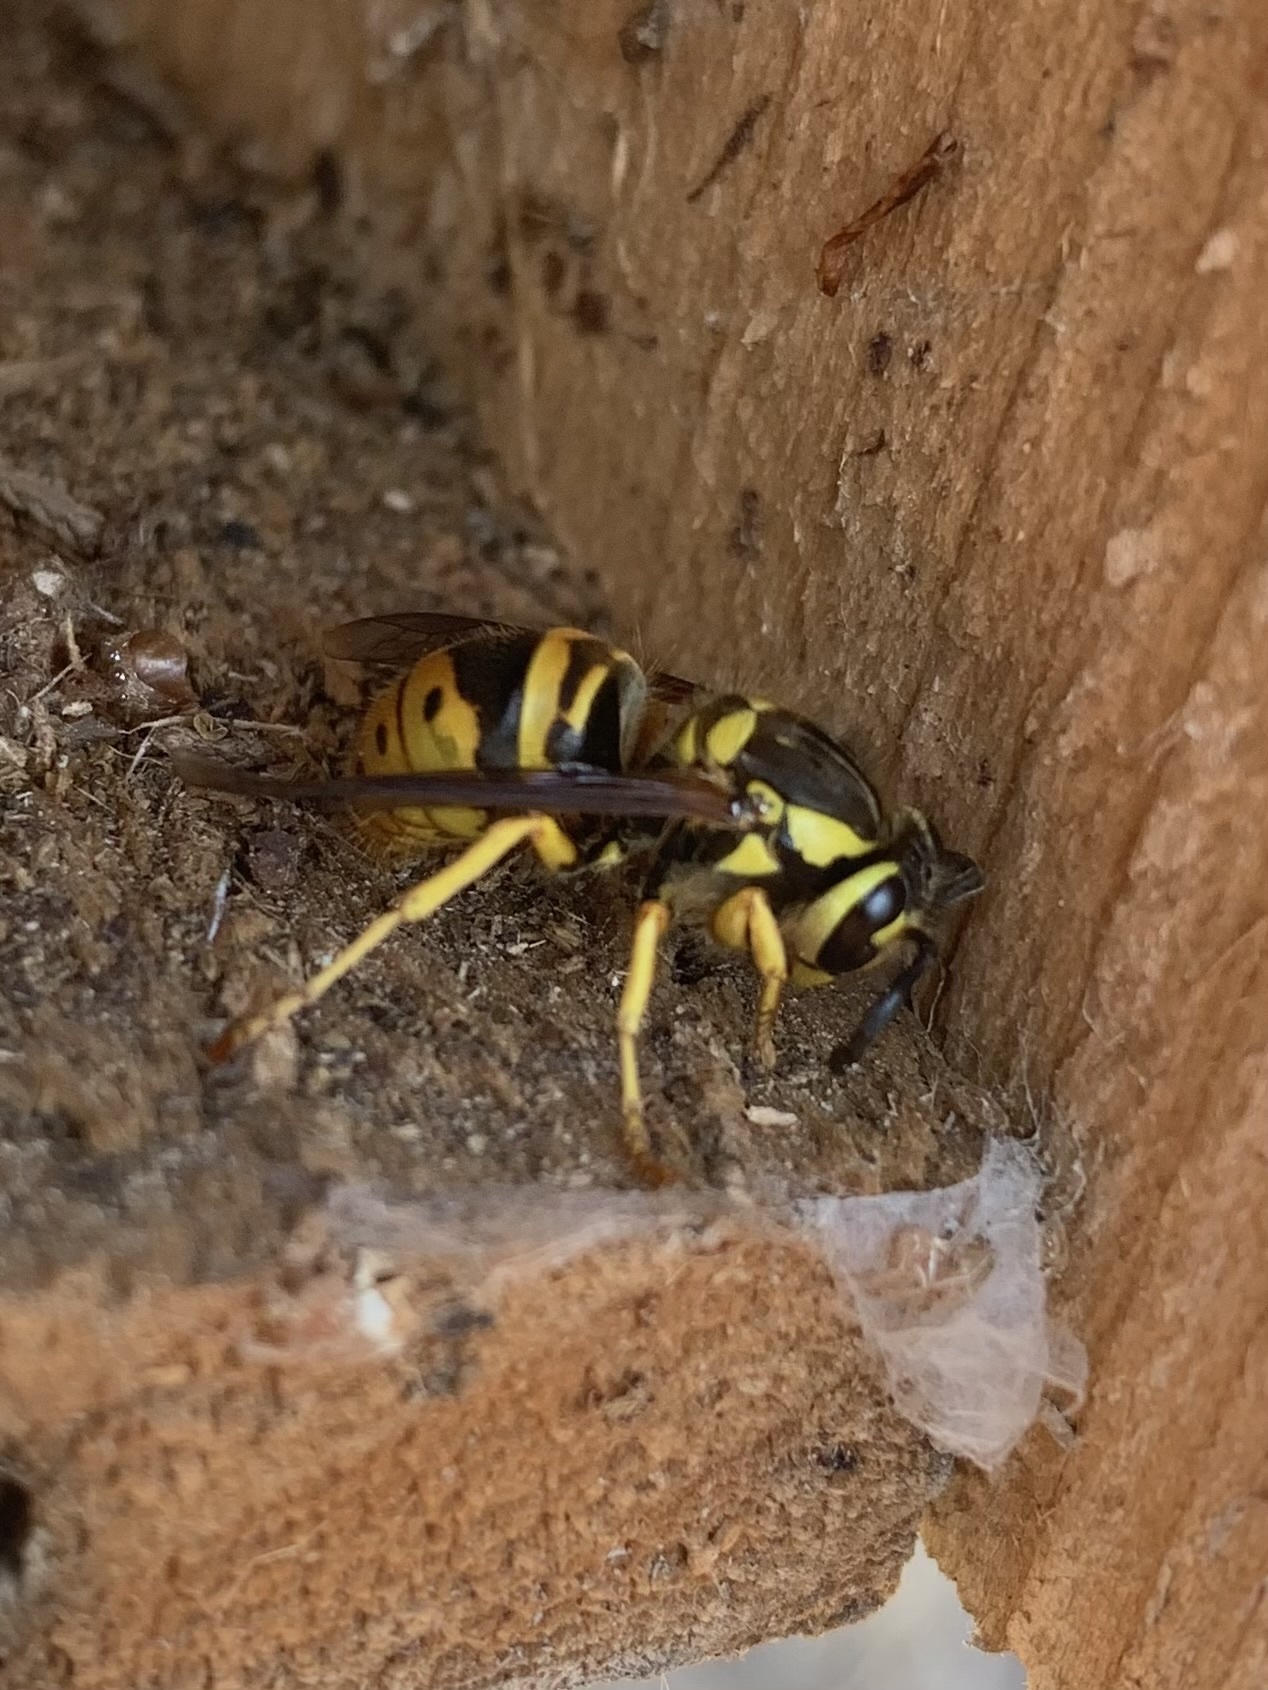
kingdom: Animalia
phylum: Arthropoda
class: Insecta
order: Hymenoptera
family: Vespidae
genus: Vespula
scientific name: Vespula maculifrons
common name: Eastern yellowjacket
